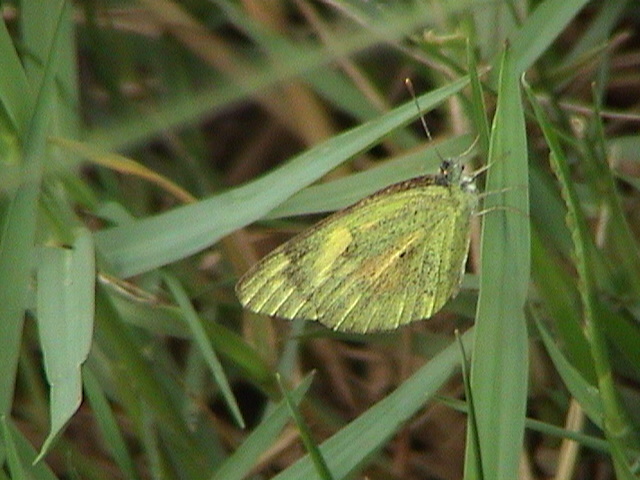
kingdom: Animalia
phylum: Arthropoda
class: Insecta
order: Lepidoptera
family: Pieridae
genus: Colotis
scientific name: Colotis amata
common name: Small salmon arab
